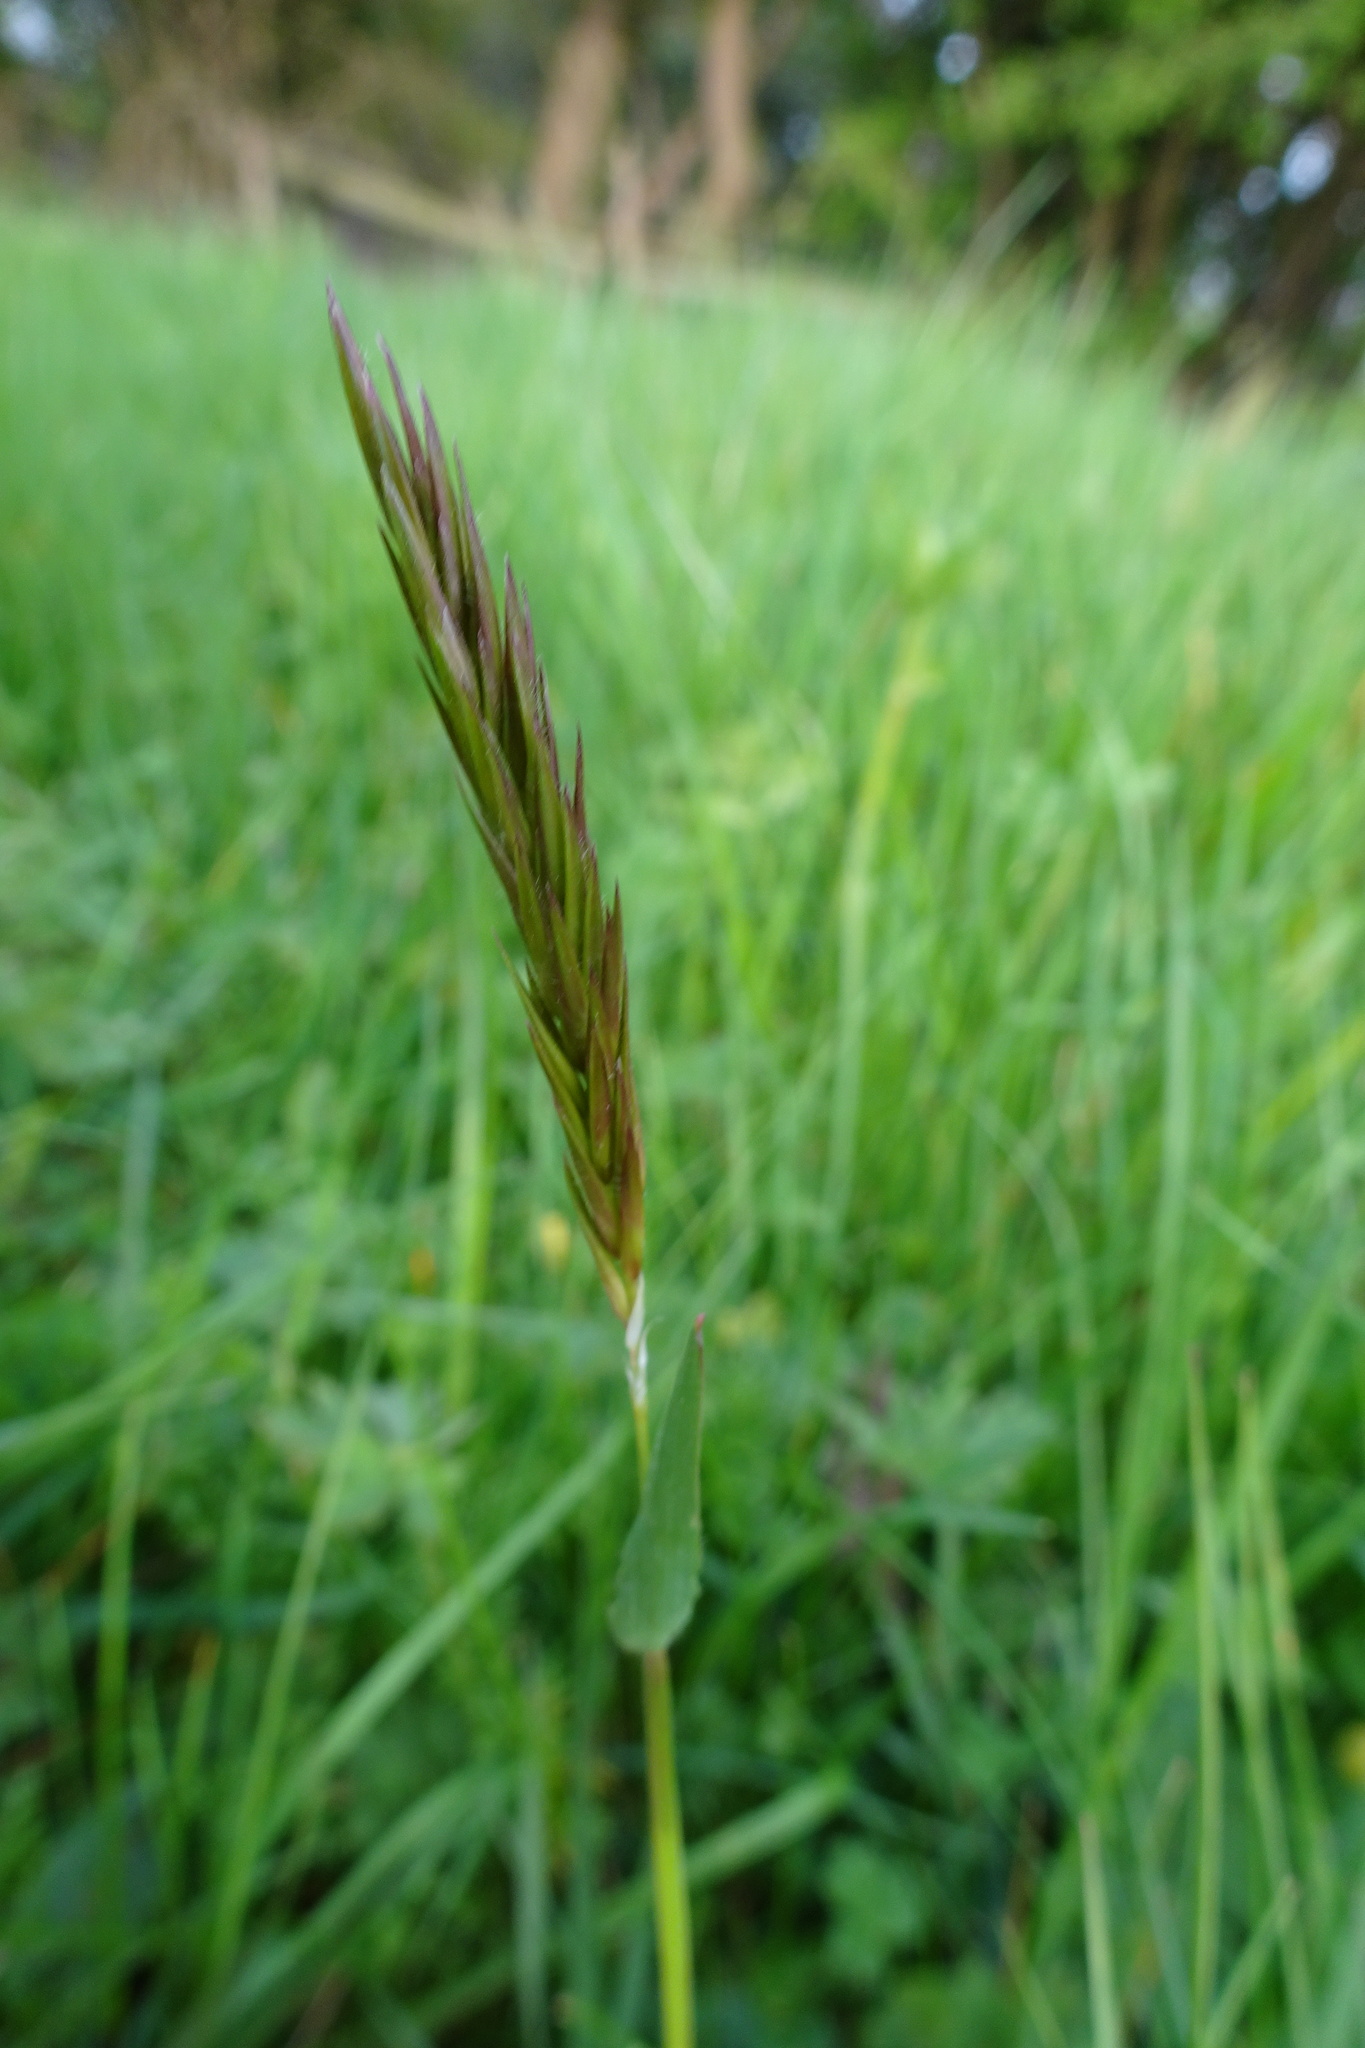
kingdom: Plantae
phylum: Tracheophyta
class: Liliopsida
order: Poales
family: Poaceae
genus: Anthoxanthum
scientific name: Anthoxanthum odoratum
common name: Sweet vernalgrass
